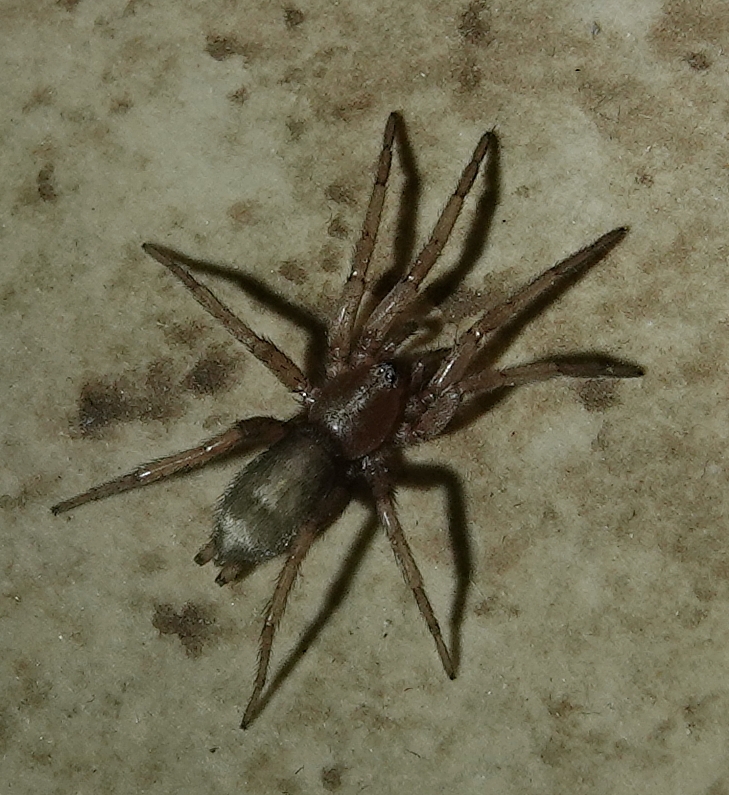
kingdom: Animalia
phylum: Arthropoda
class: Arachnida
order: Araneae
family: Gnaphosidae
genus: Herpyllus
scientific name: Herpyllus ecclesiasticus
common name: Eastern parson spider
